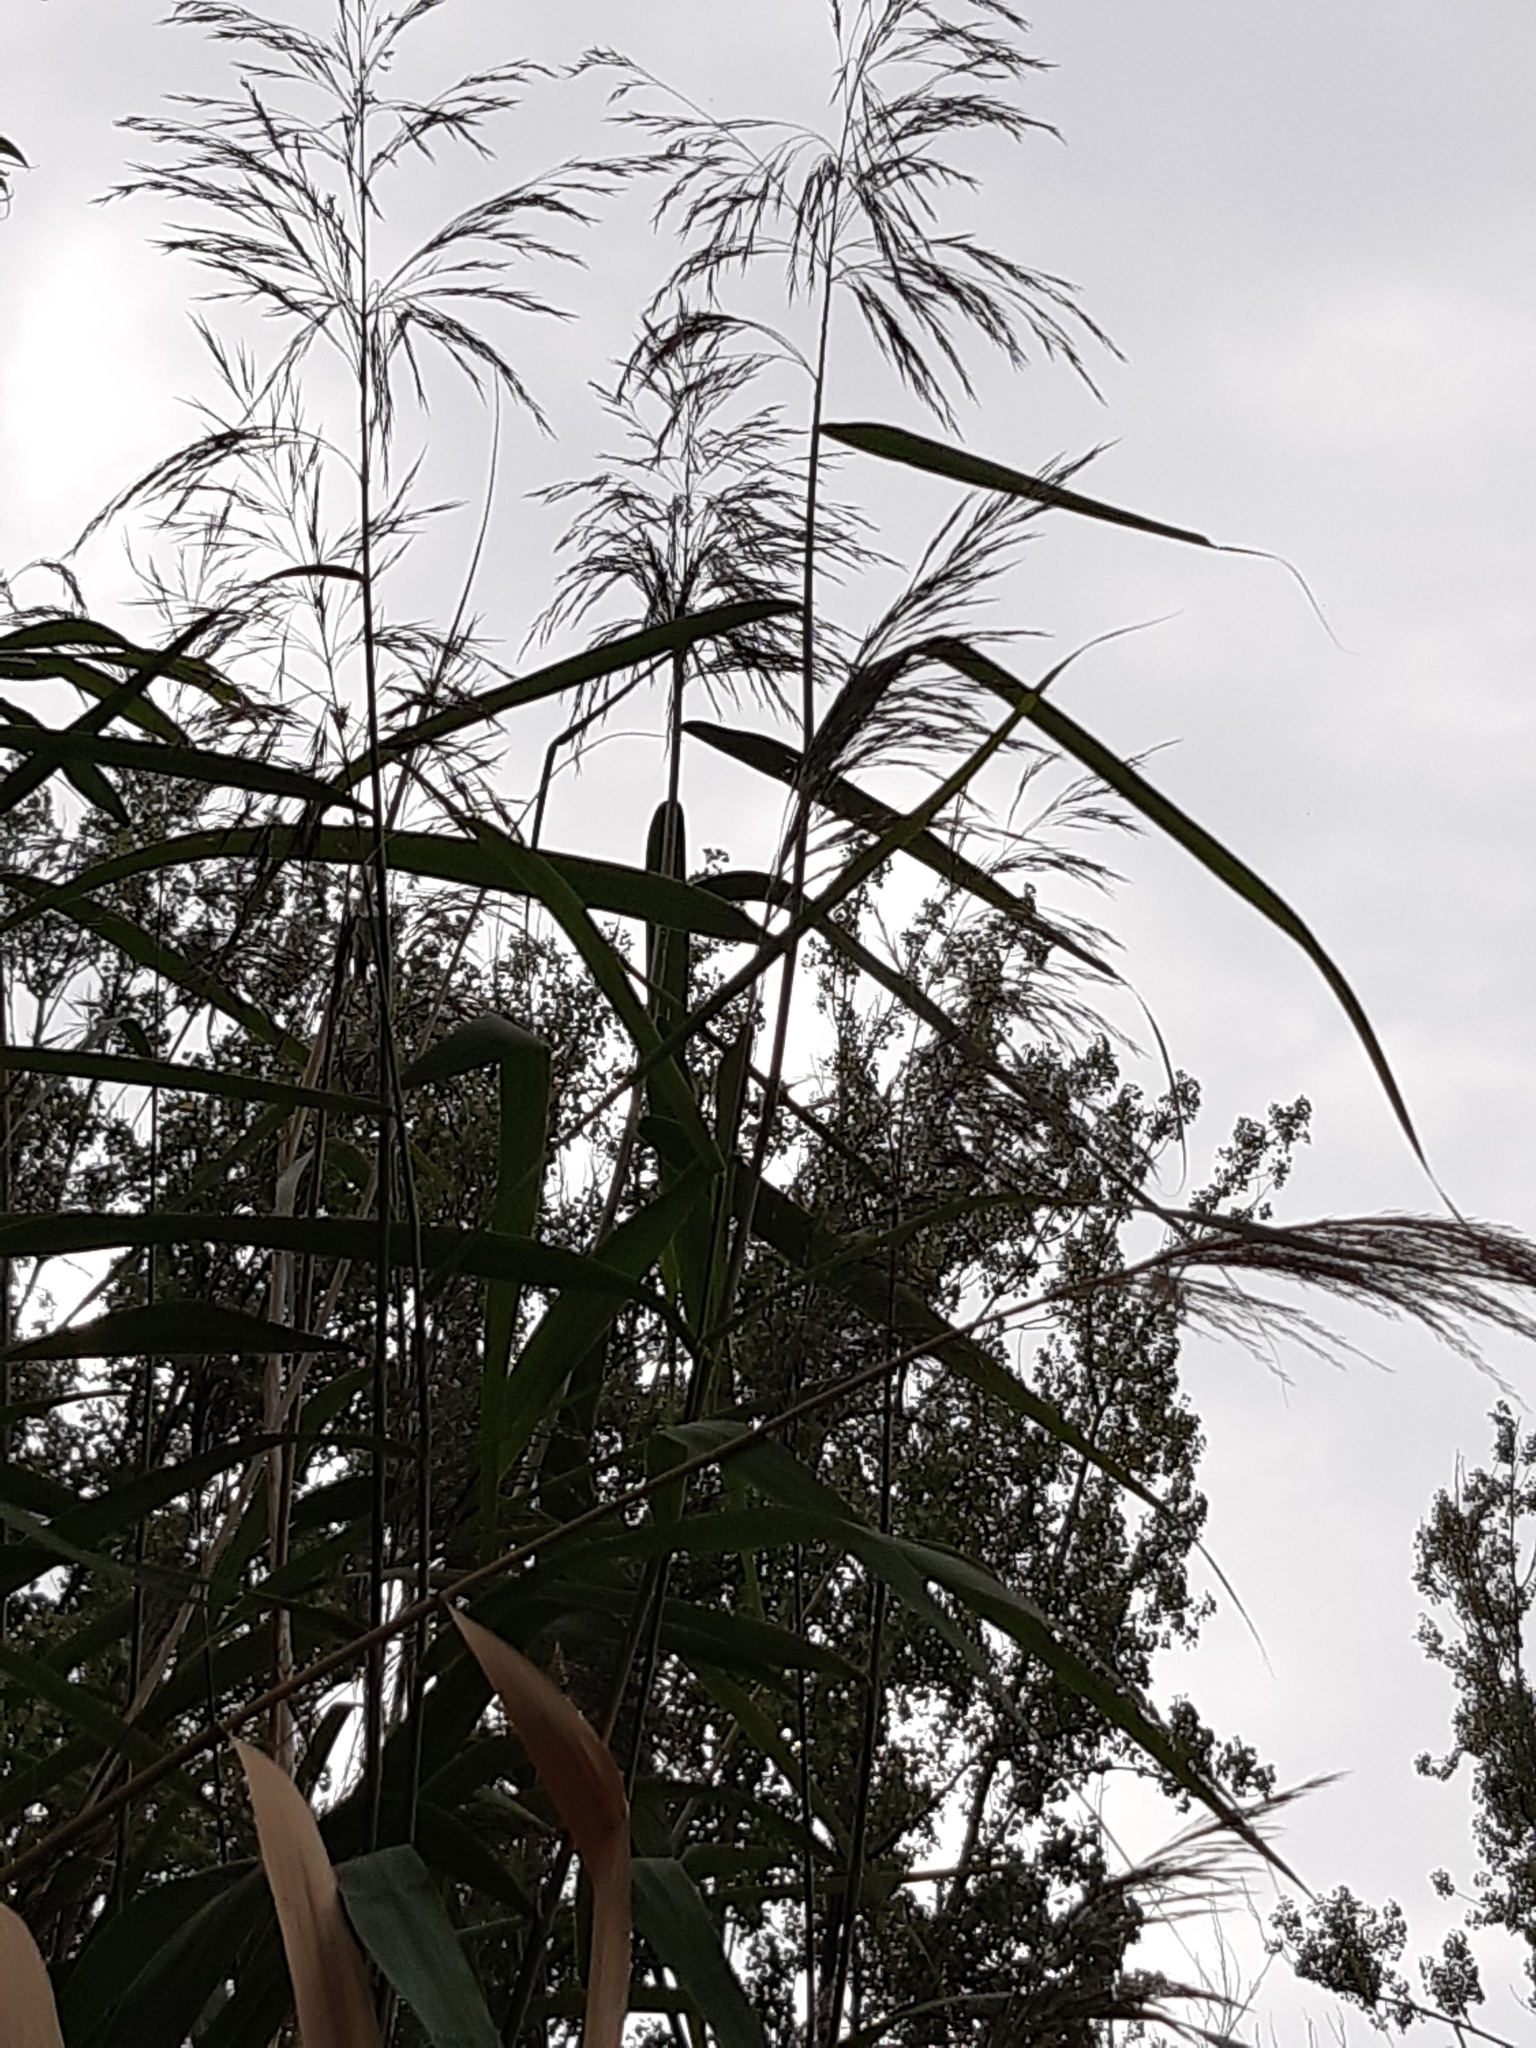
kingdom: Plantae
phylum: Tracheophyta
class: Liliopsida
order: Poales
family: Poaceae
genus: Phragmites
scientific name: Phragmites australis
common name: Common reed
